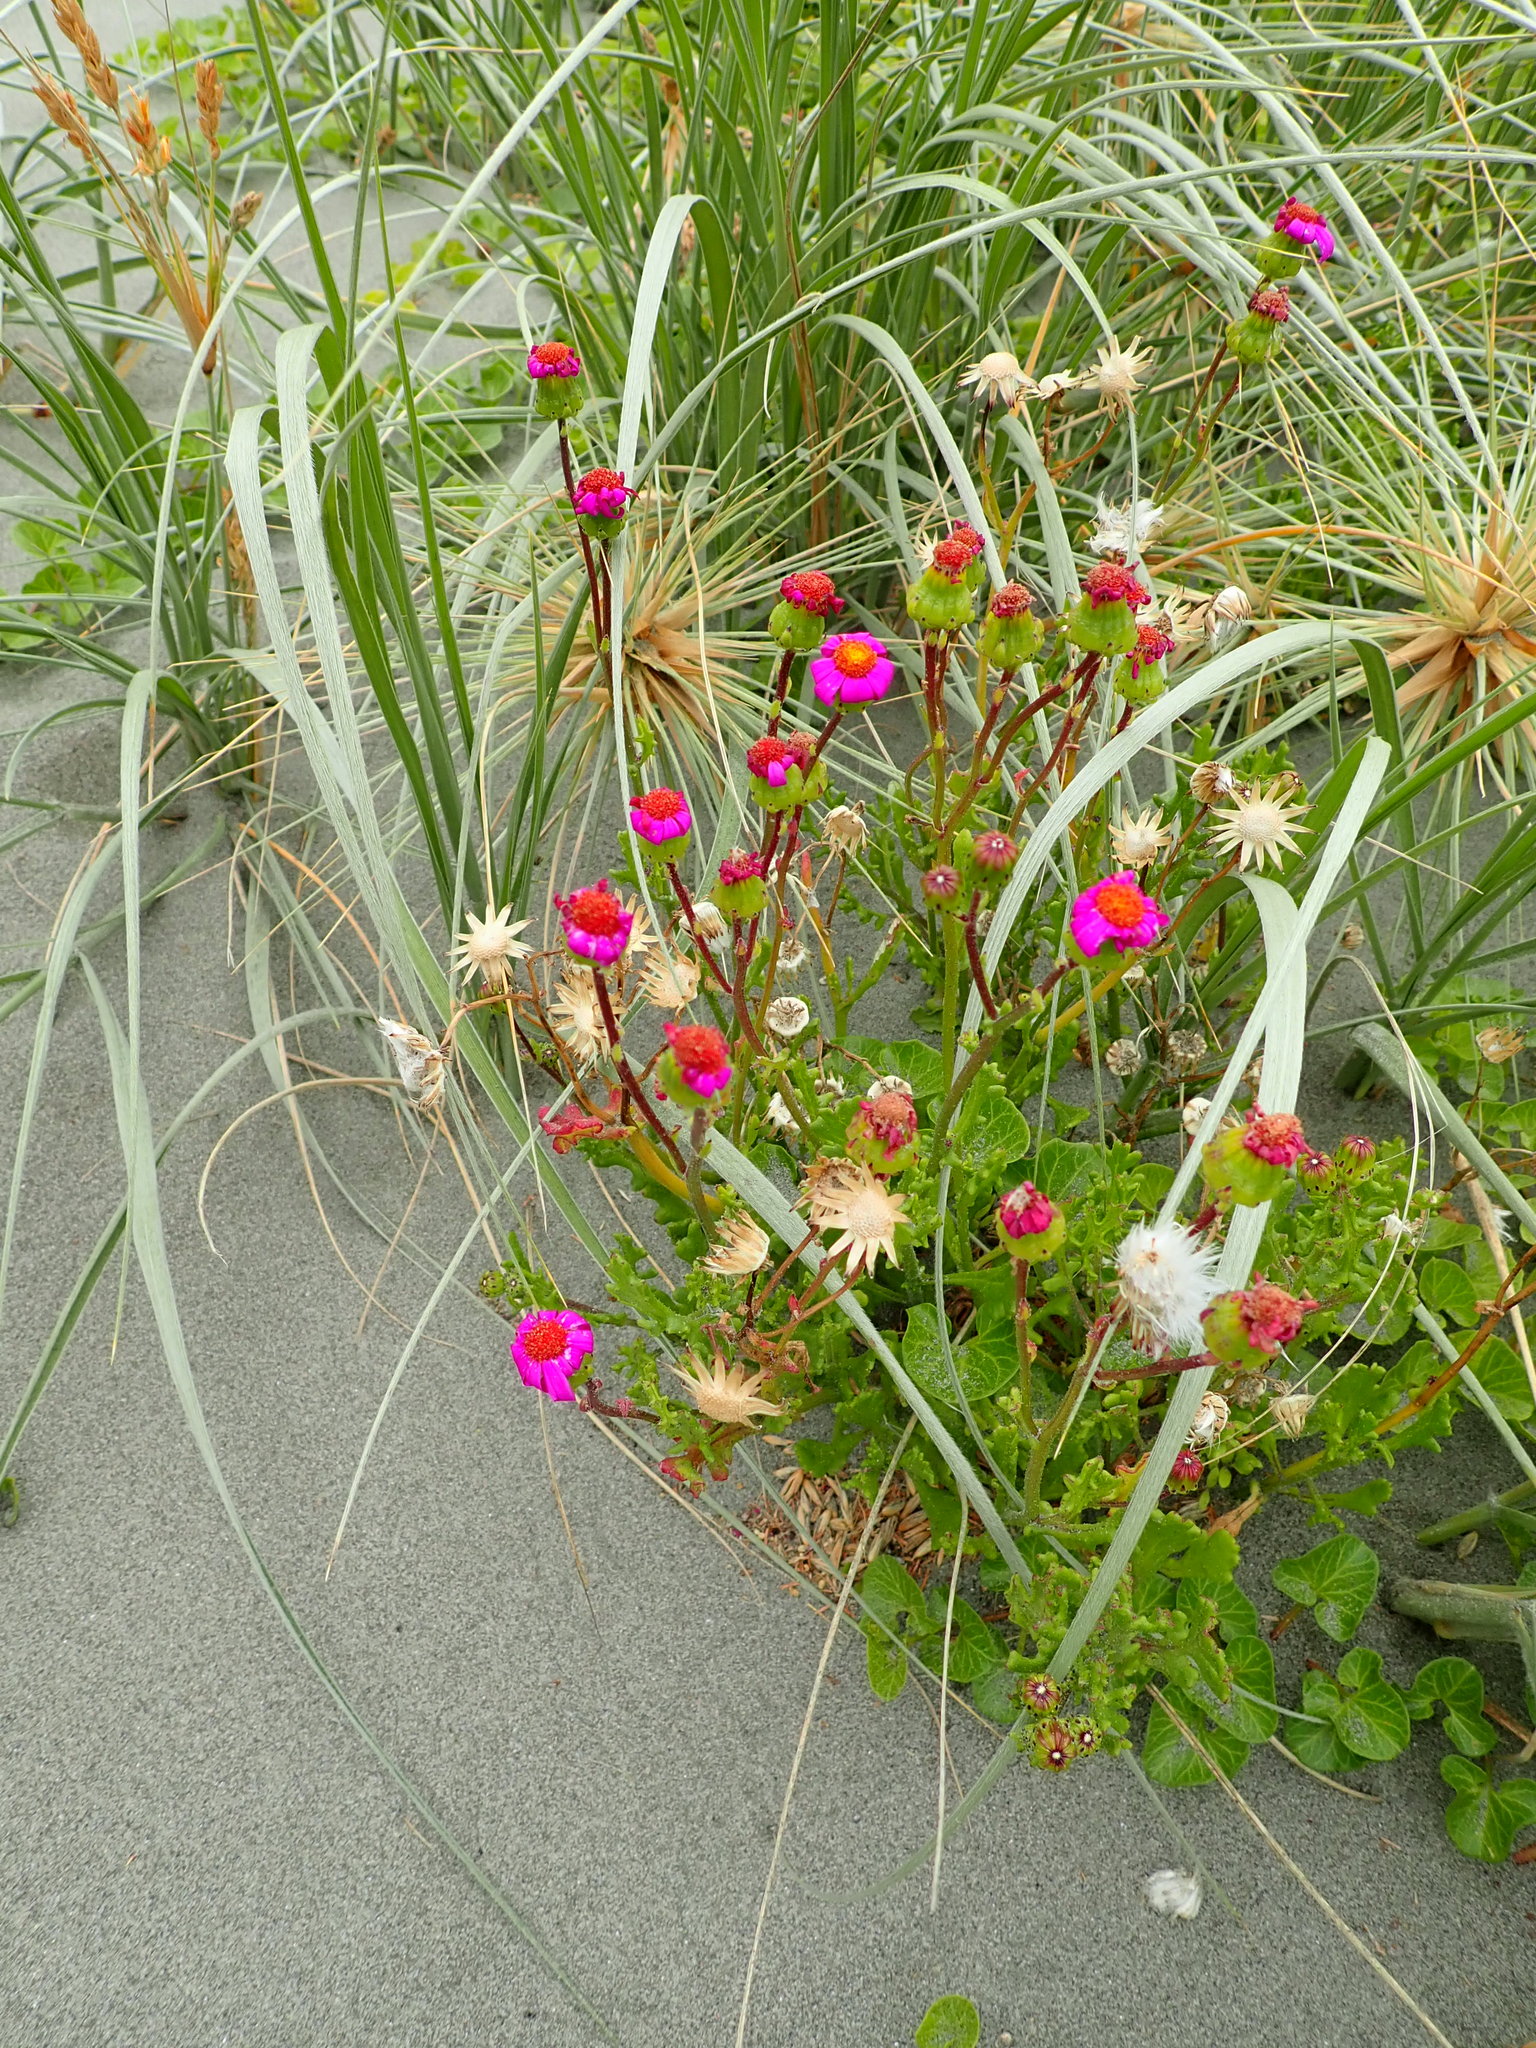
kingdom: Plantae
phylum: Tracheophyta
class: Magnoliopsida
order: Asterales
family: Asteraceae
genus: Senecio
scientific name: Senecio elegans
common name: Purple groundsel
